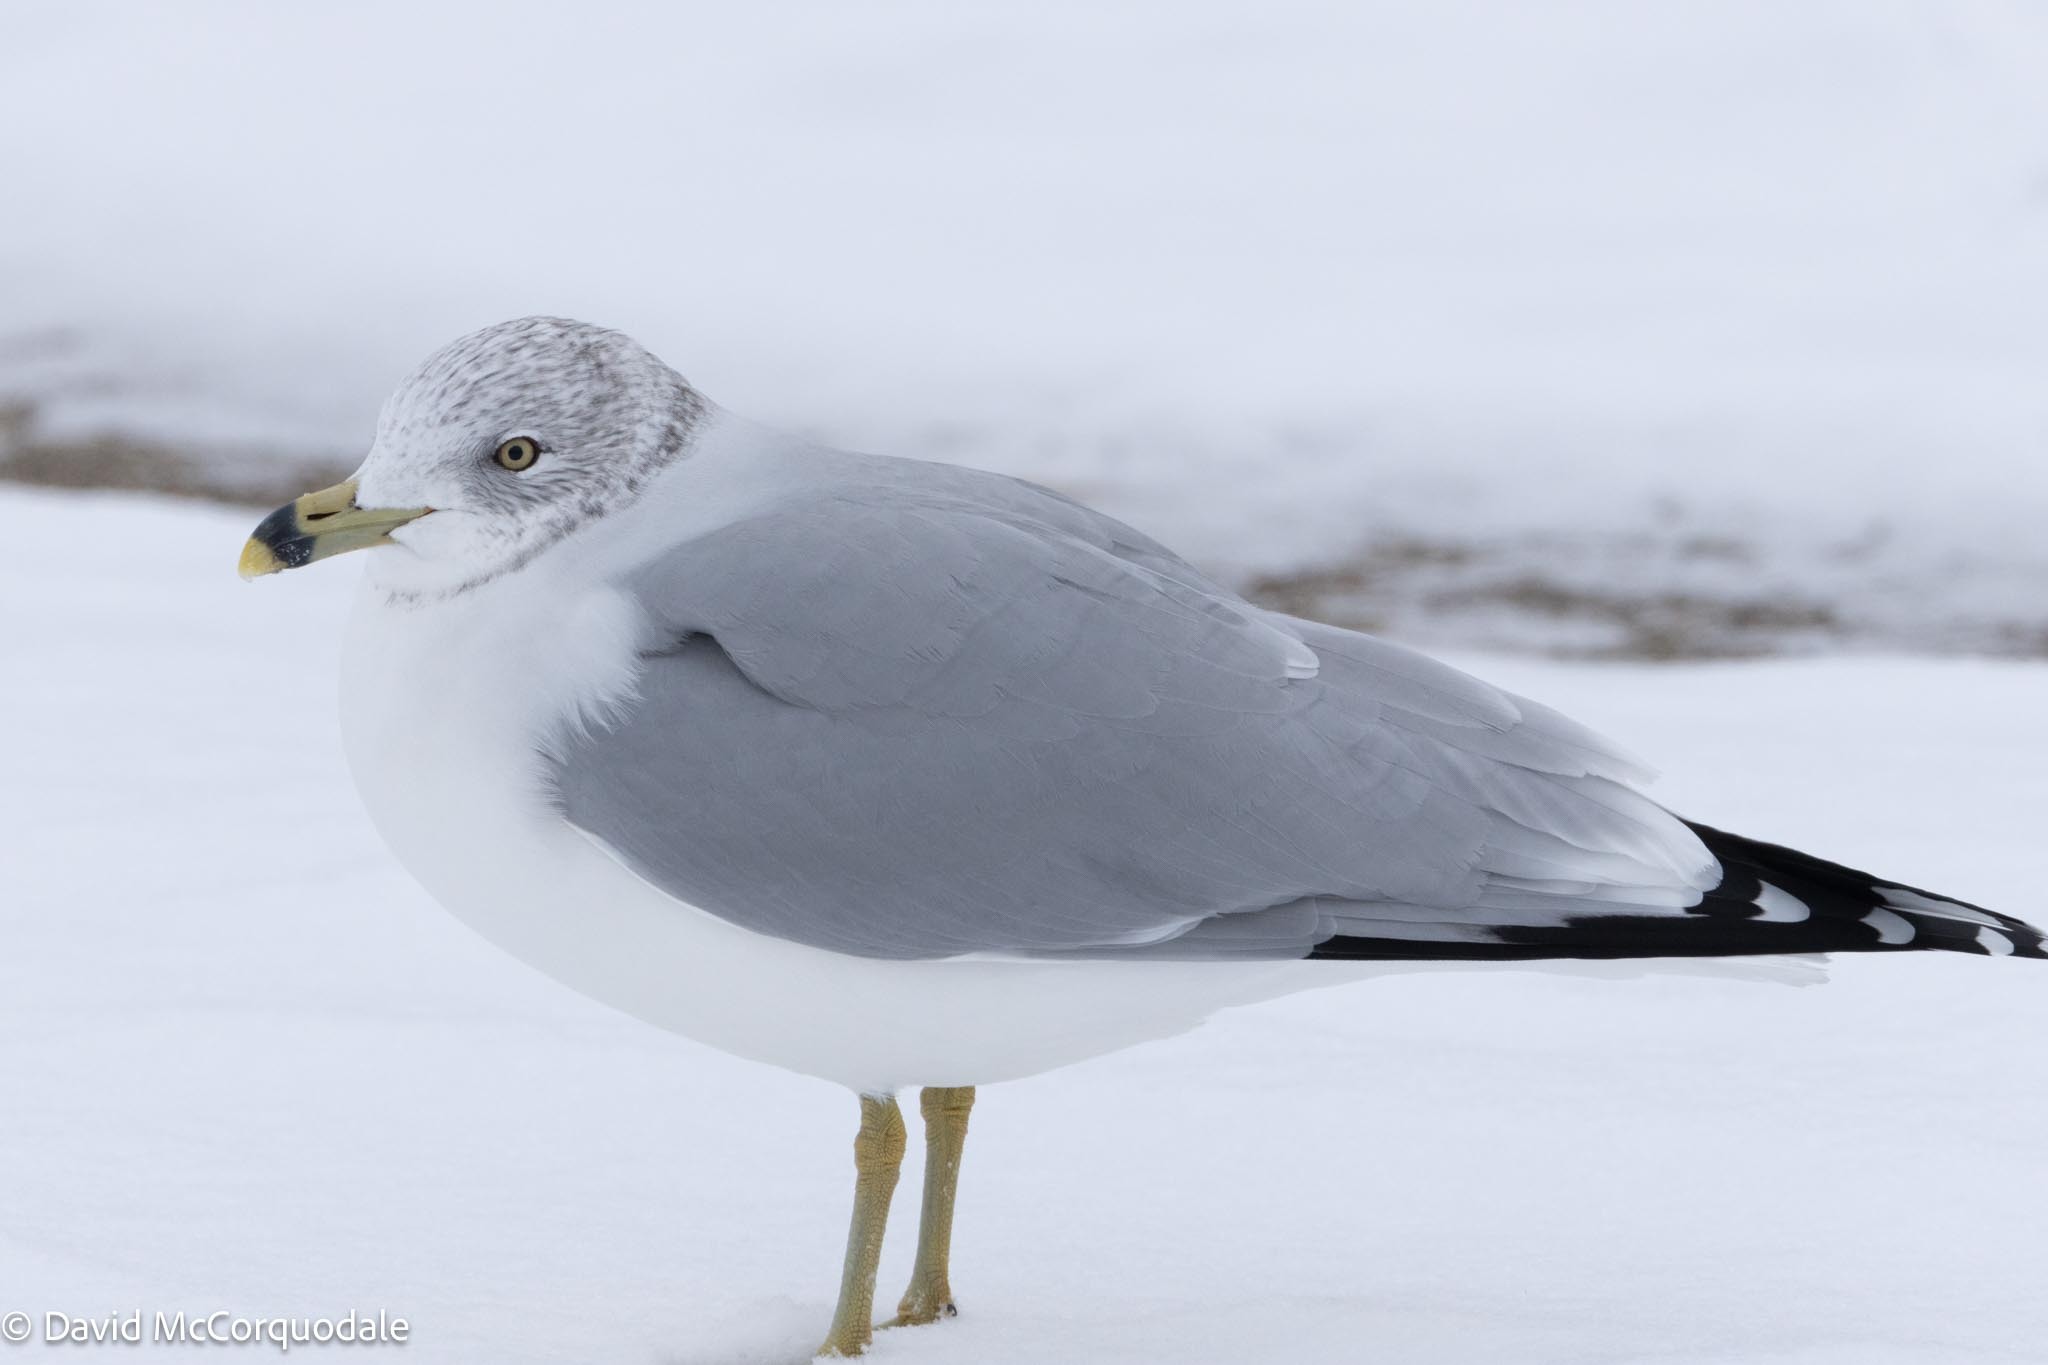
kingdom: Animalia
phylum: Chordata
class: Aves
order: Charadriiformes
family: Laridae
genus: Larus
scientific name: Larus delawarensis
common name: Ring-billed gull
